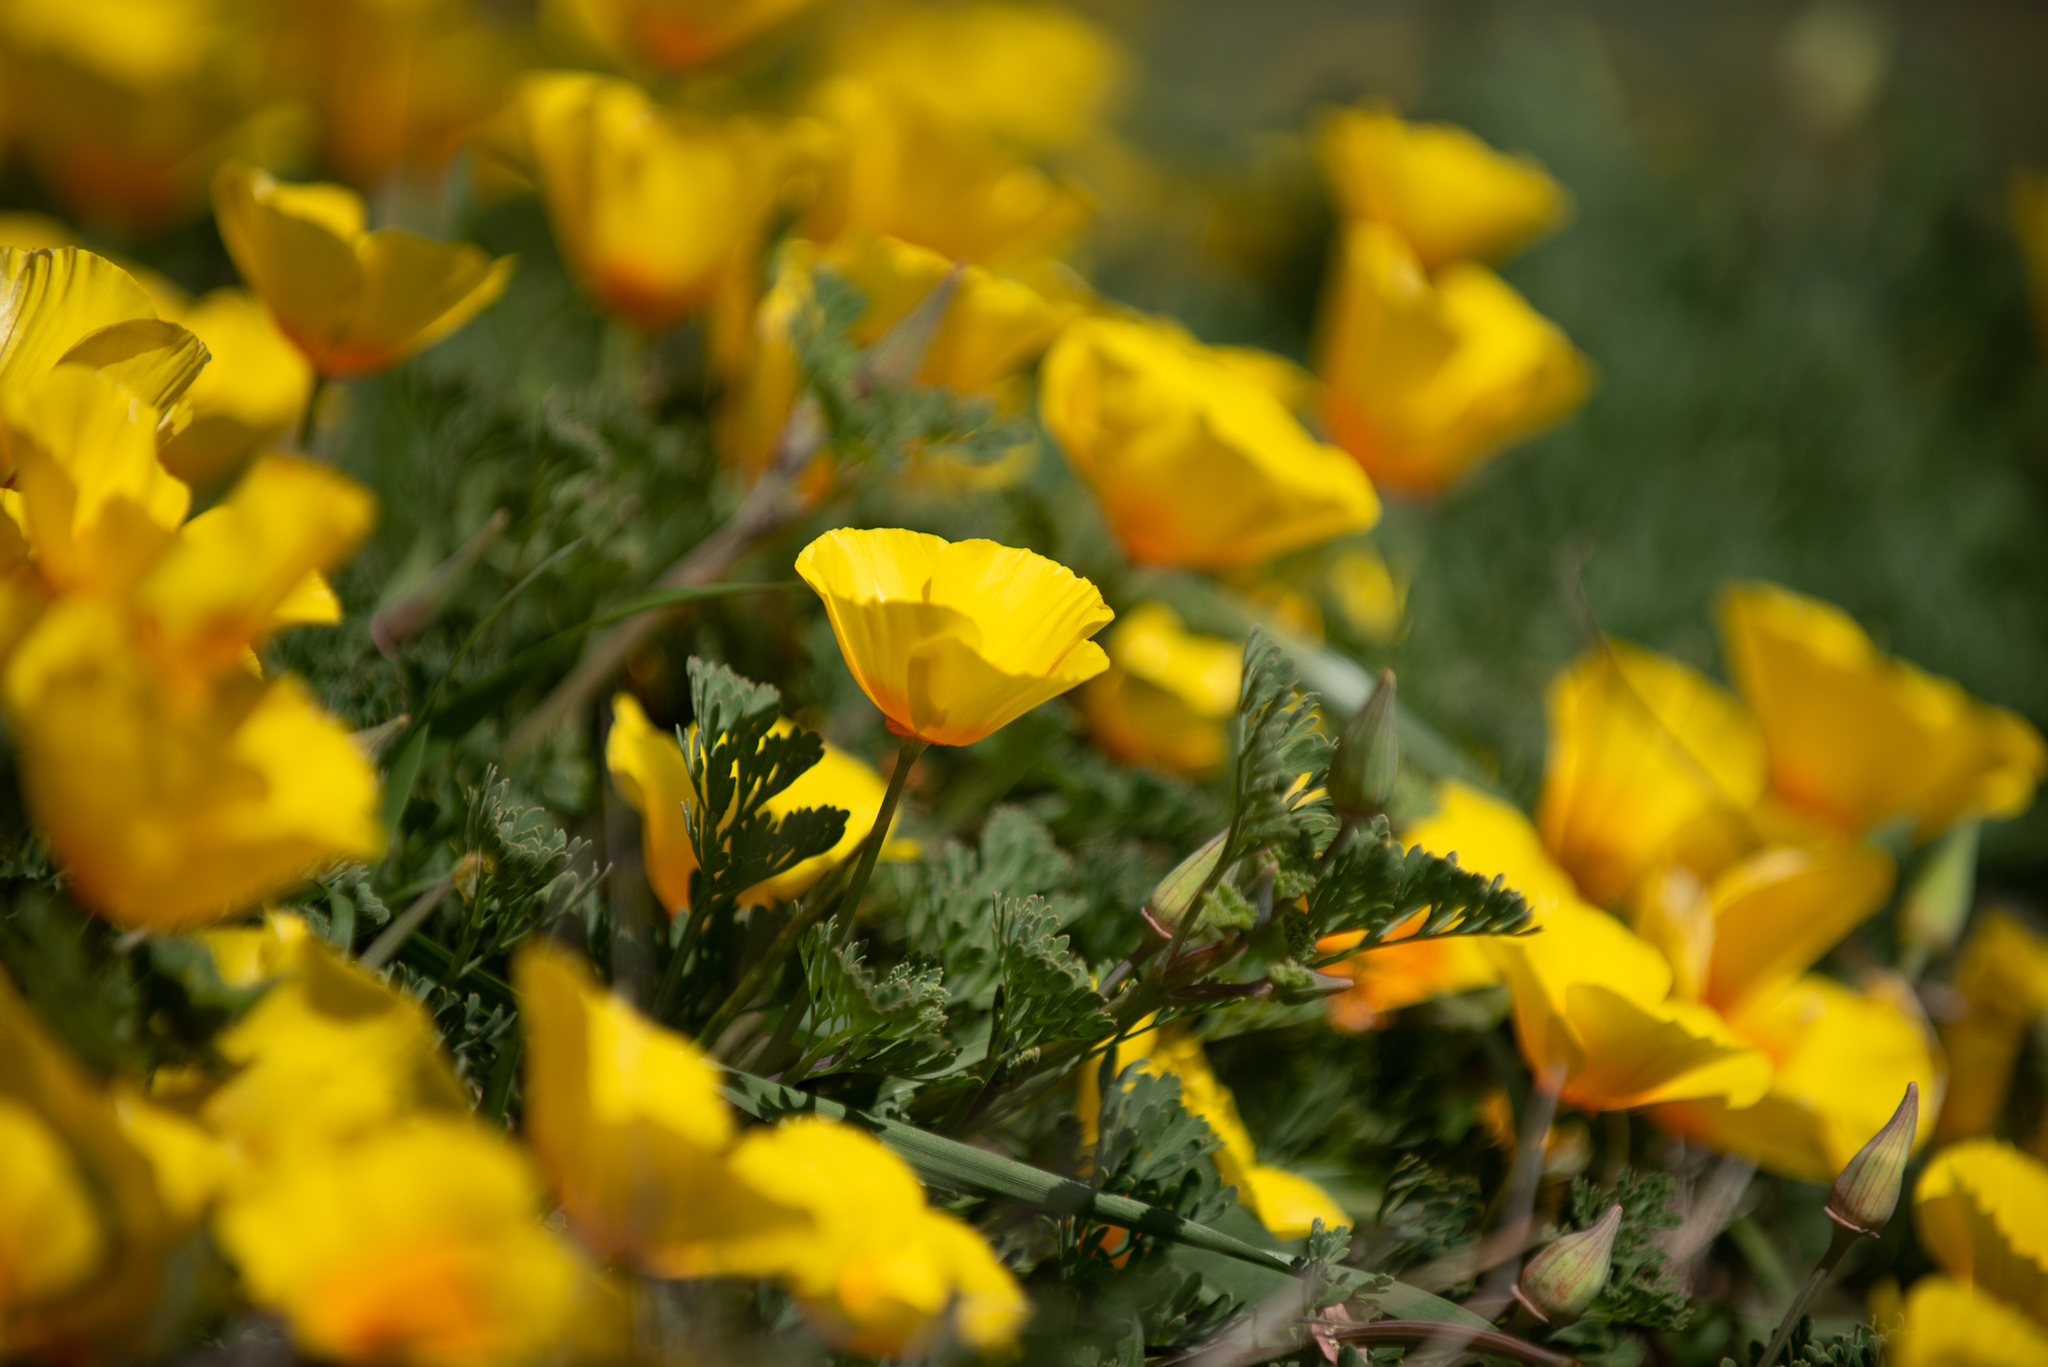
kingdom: Plantae
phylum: Tracheophyta
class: Magnoliopsida
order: Ranunculales
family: Papaveraceae
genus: Eschscholzia
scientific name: Eschscholzia californica
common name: California poppy
